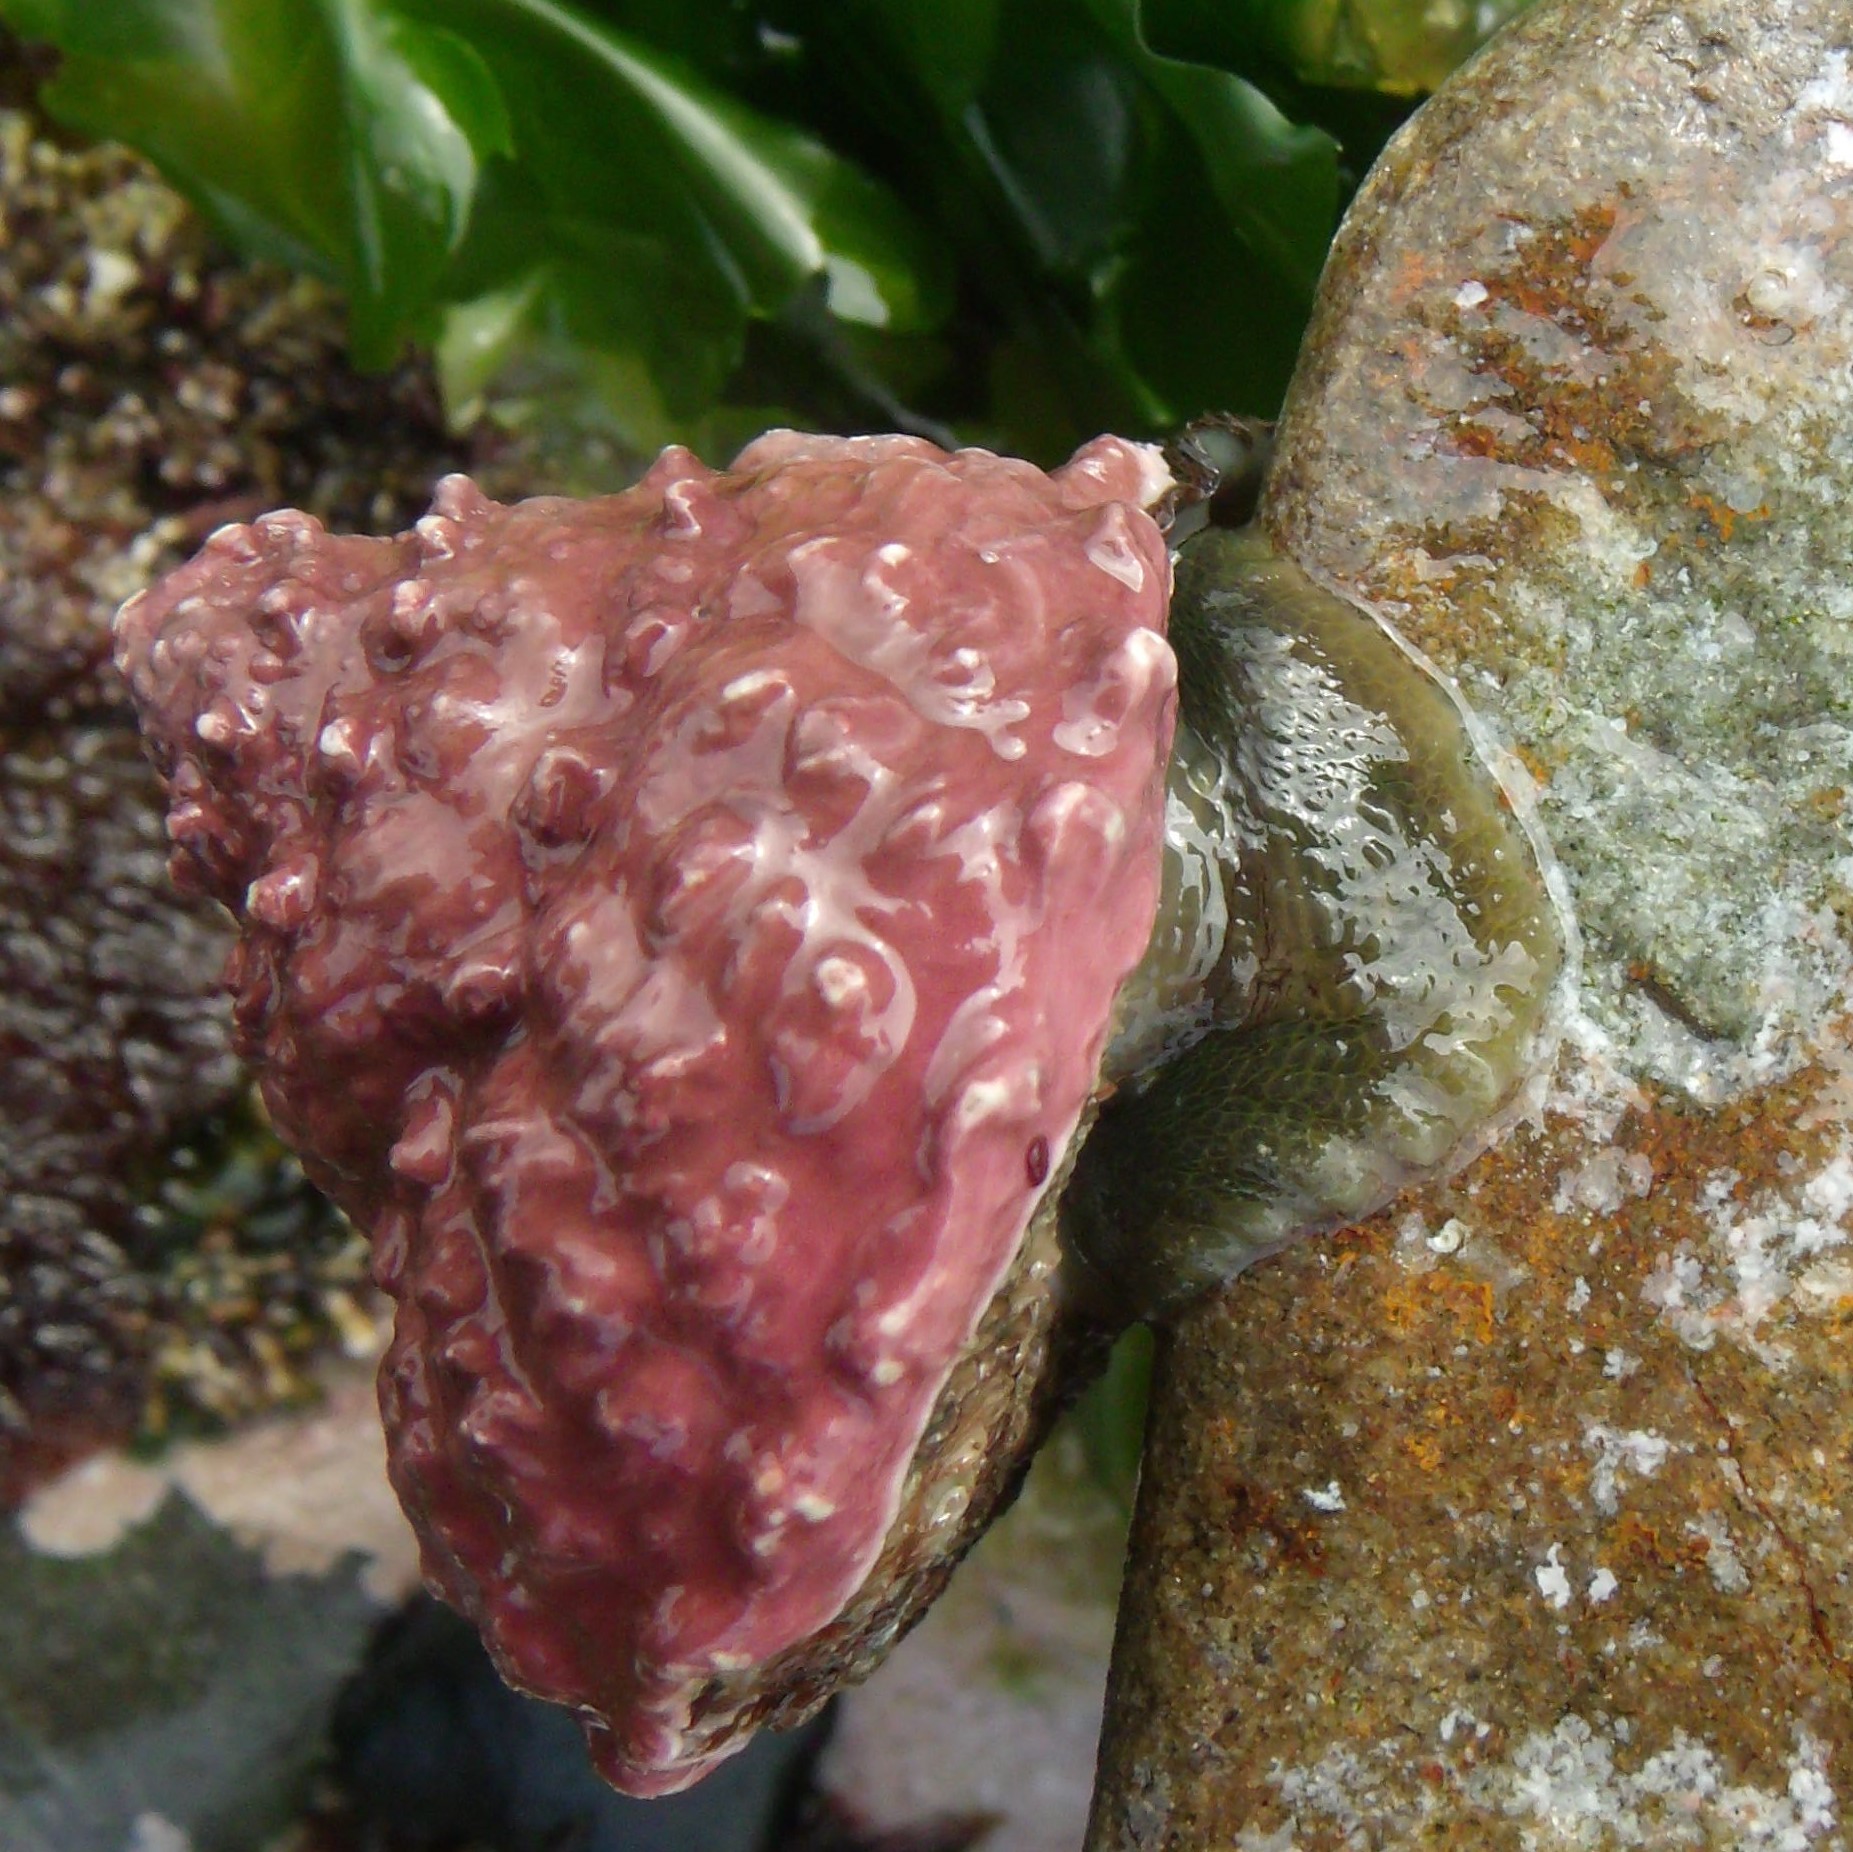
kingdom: Animalia
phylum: Mollusca
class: Gastropoda
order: Trochida
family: Turbinidae
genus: Cookia
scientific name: Cookia sulcata
